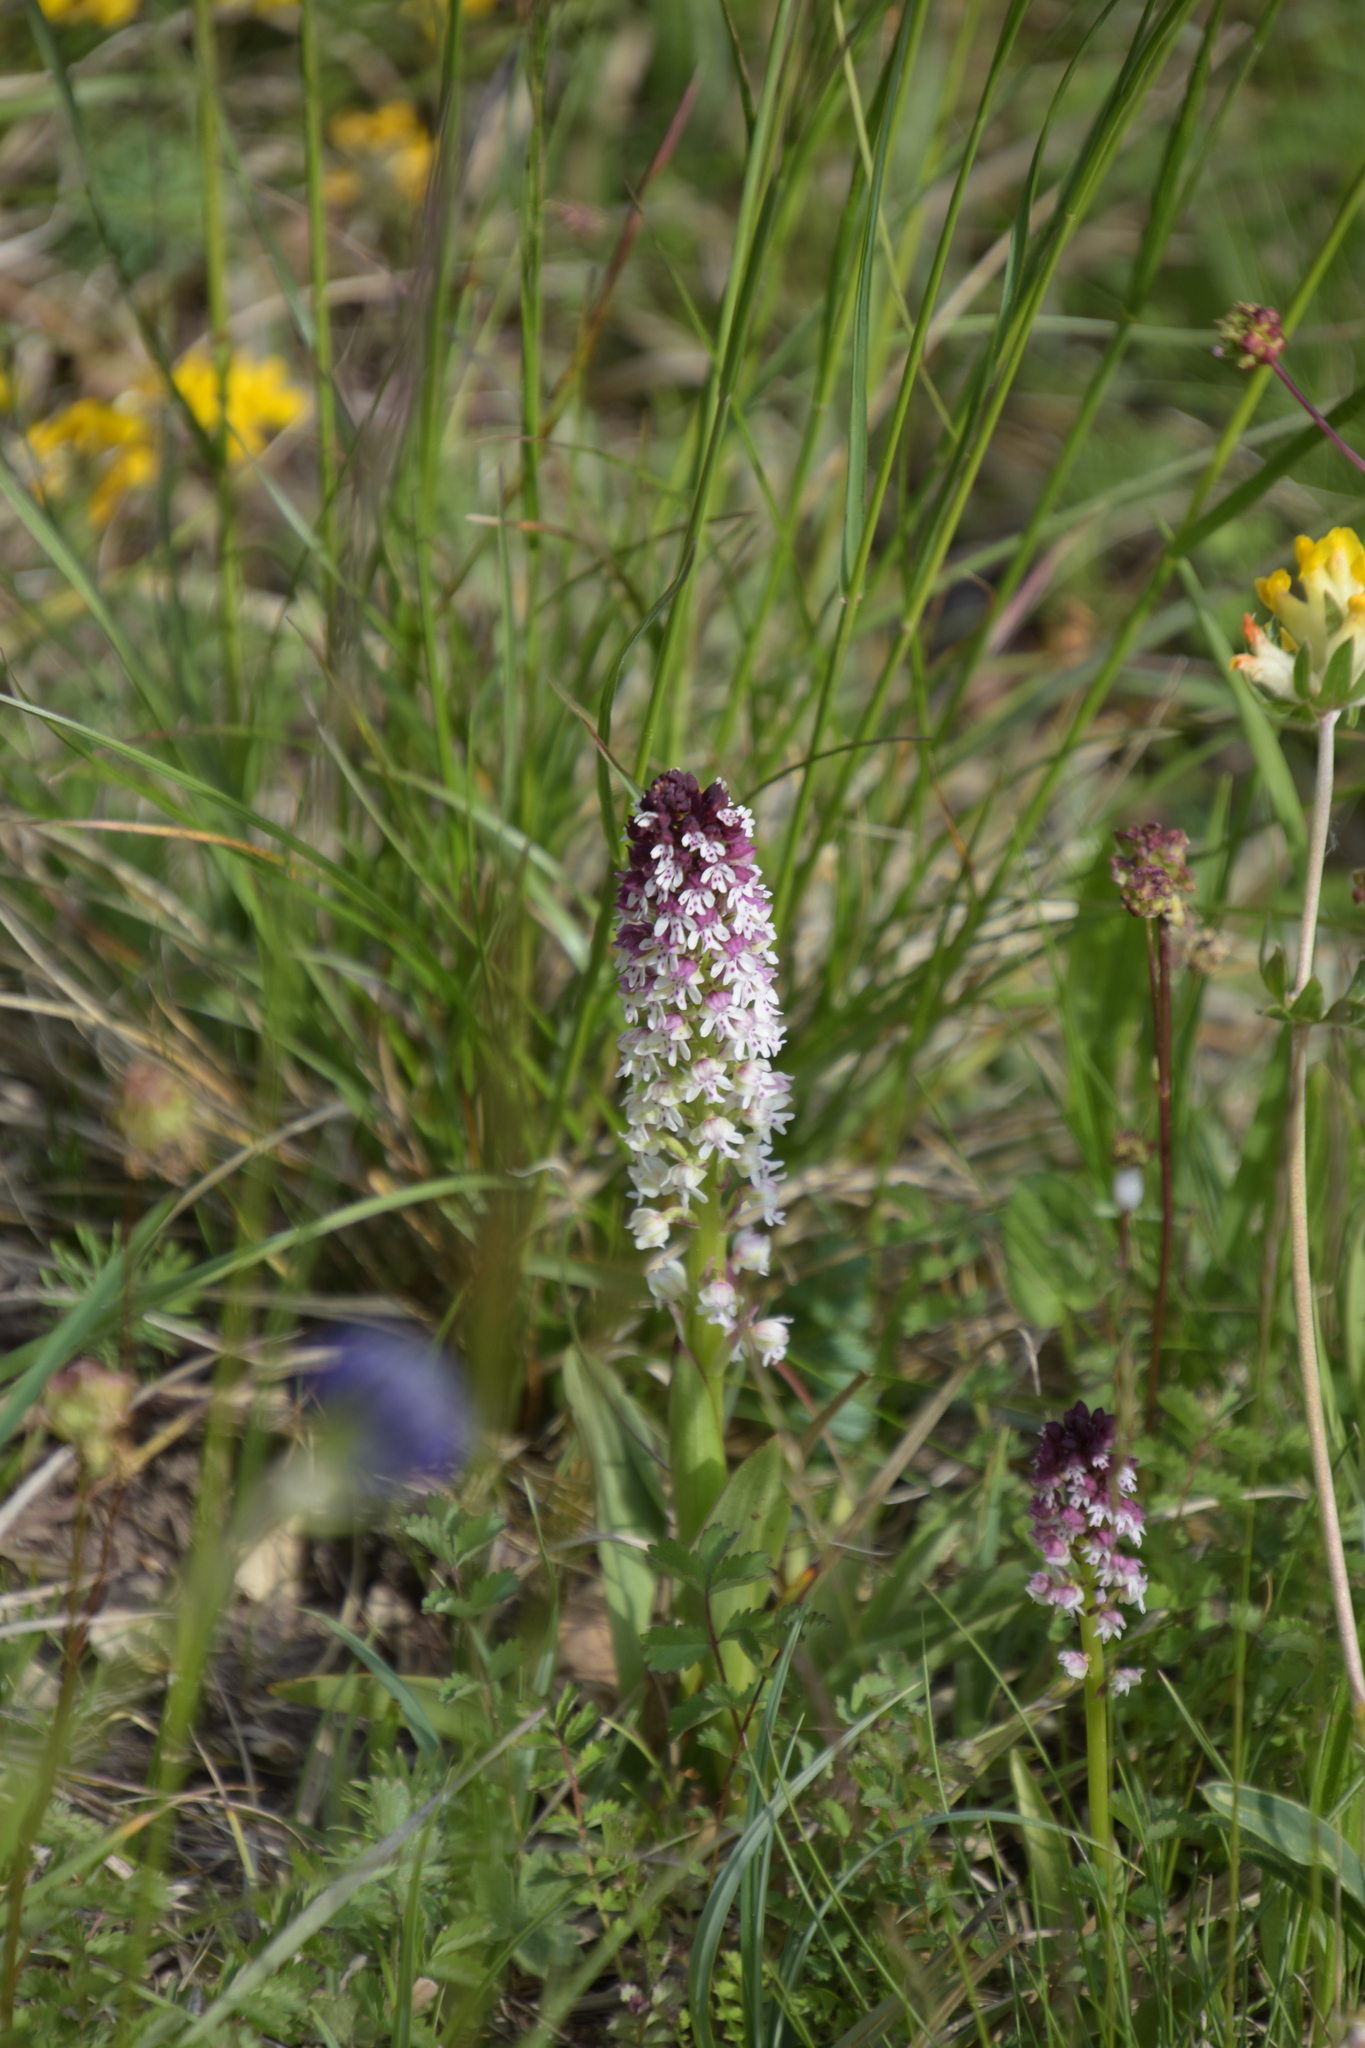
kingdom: Plantae
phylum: Tracheophyta
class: Liliopsida
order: Asparagales
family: Orchidaceae
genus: Neotinea
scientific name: Neotinea ustulata
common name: Burnt orchid
